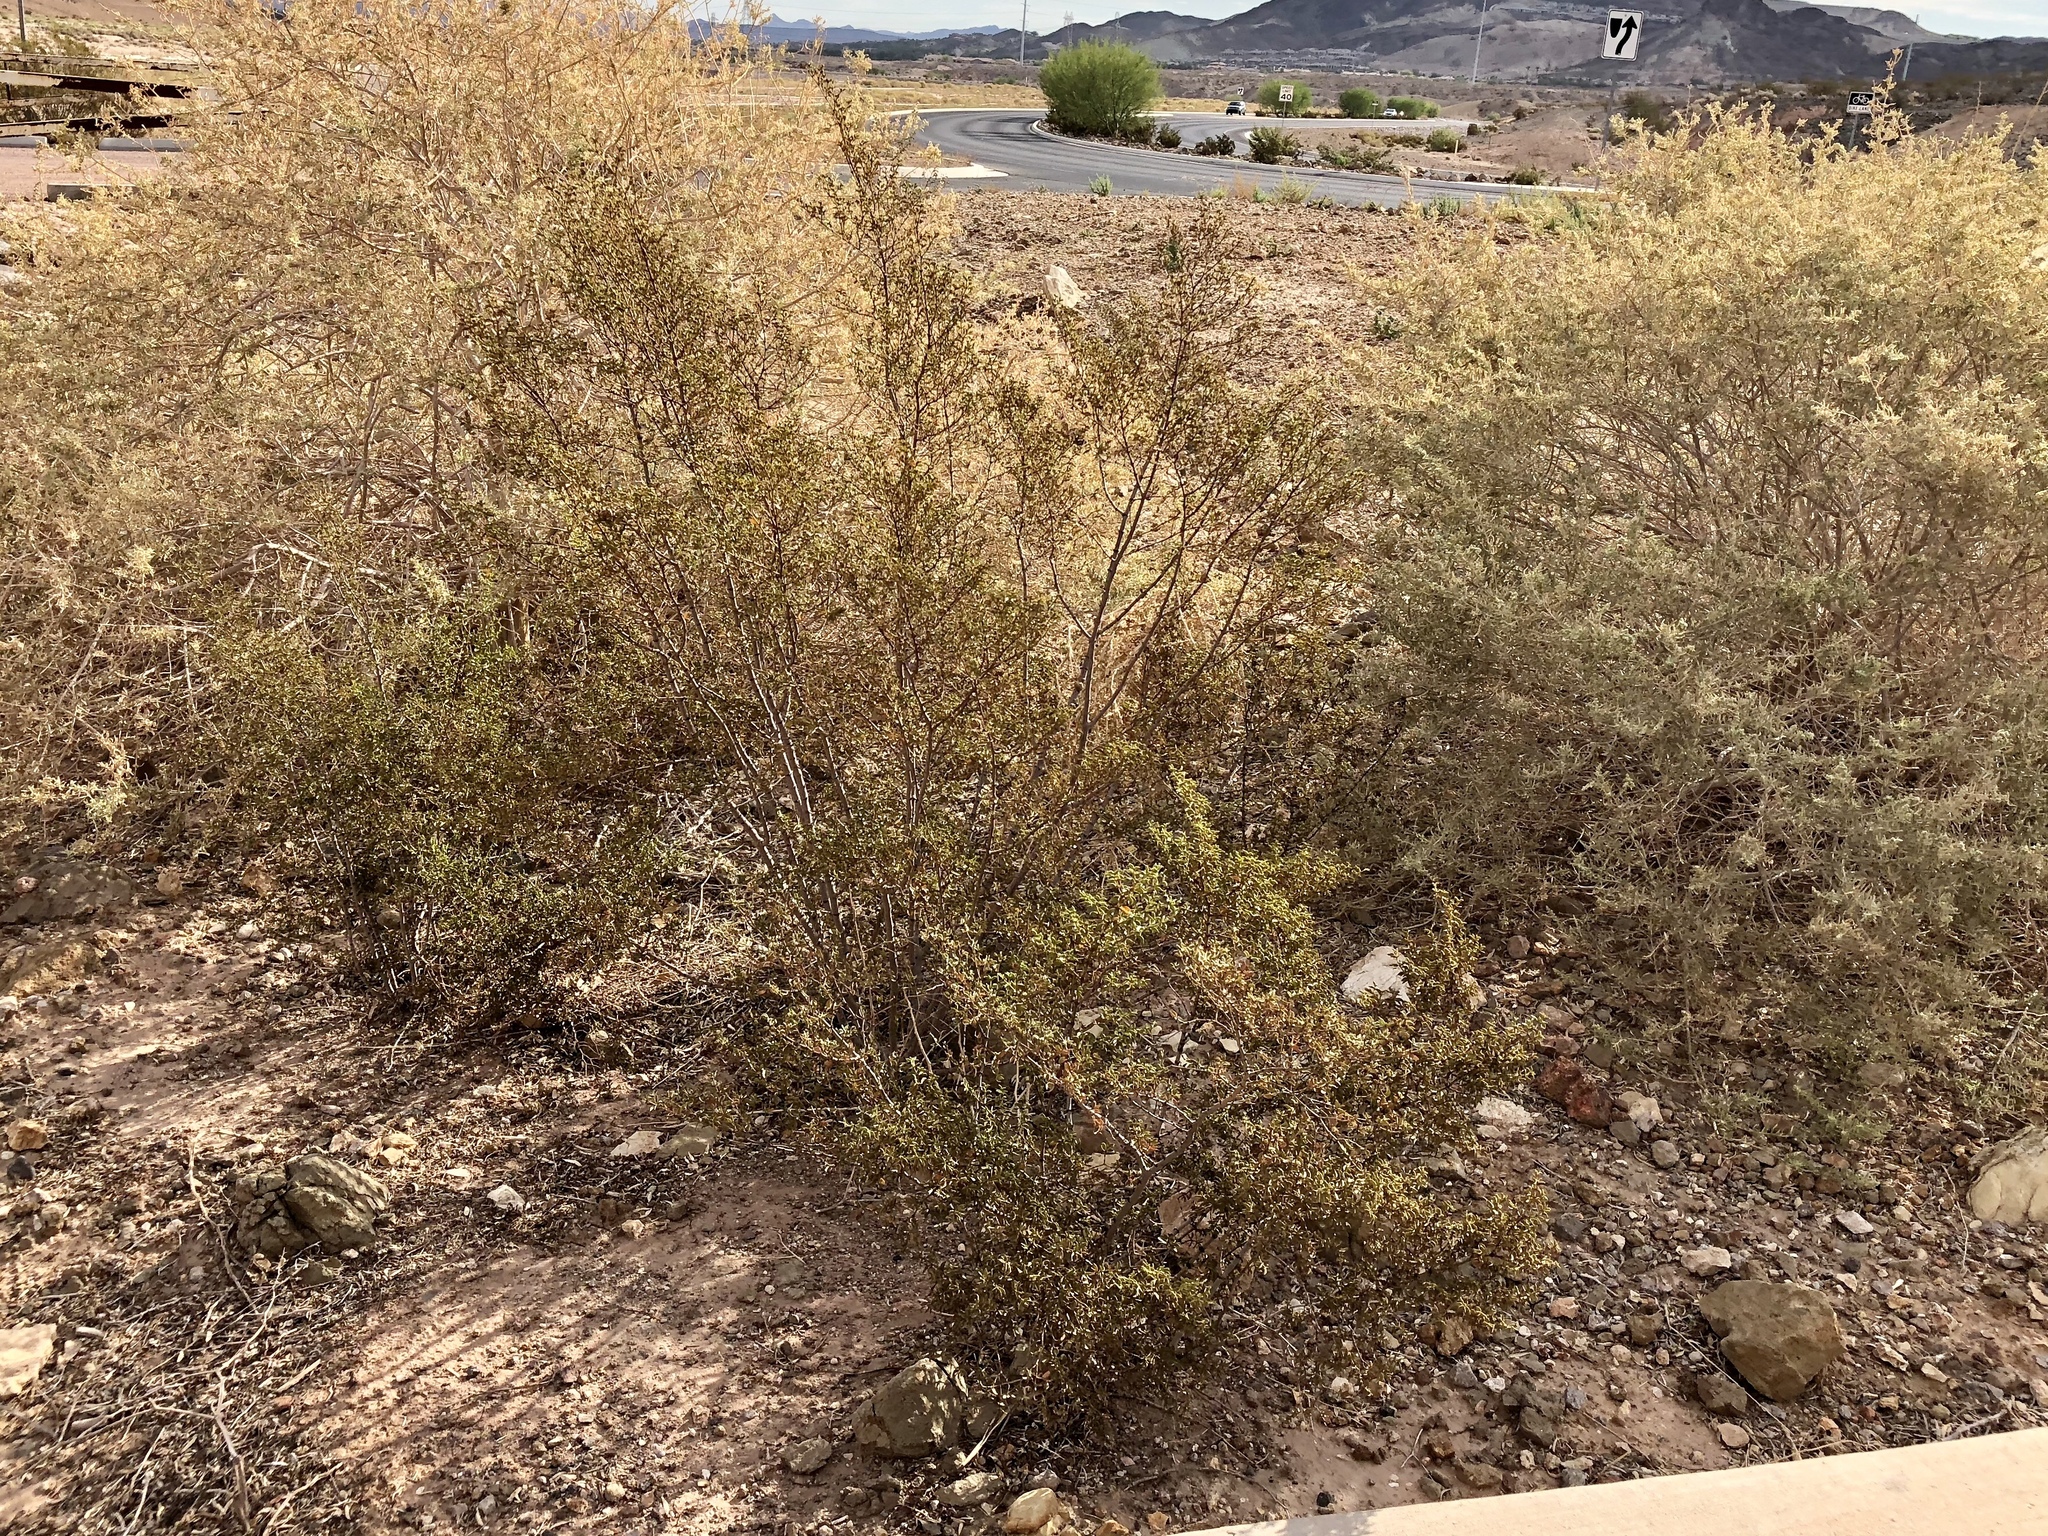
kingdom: Plantae
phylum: Tracheophyta
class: Magnoliopsida
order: Zygophyllales
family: Zygophyllaceae
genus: Larrea
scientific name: Larrea tridentata
